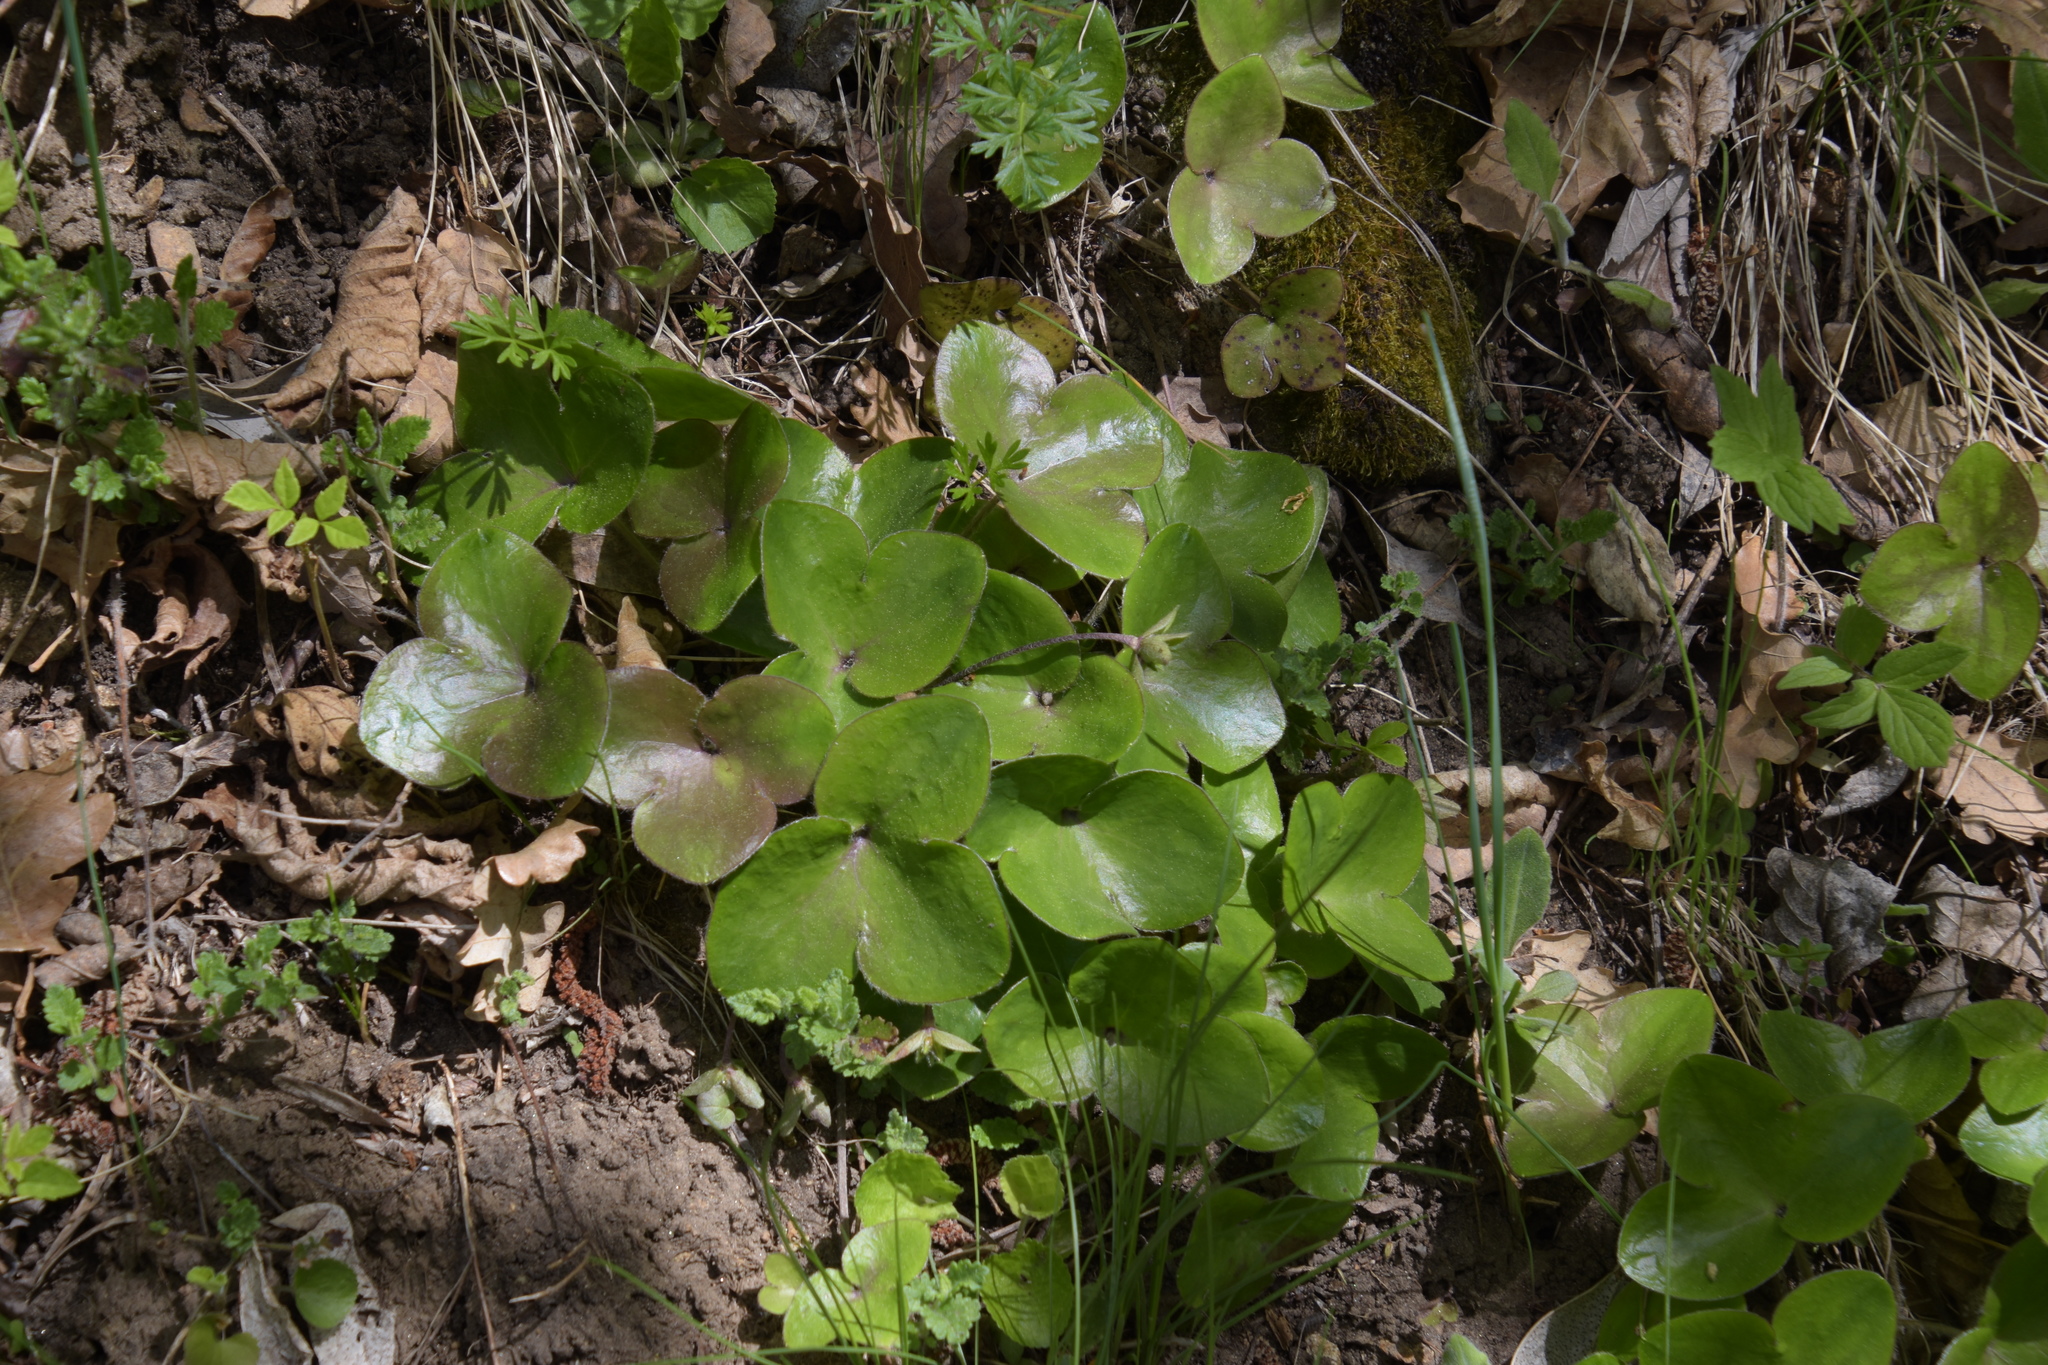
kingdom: Plantae
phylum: Tracheophyta
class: Magnoliopsida
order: Ranunculales
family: Ranunculaceae
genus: Hepatica
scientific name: Hepatica nobilis
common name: Liverleaf
